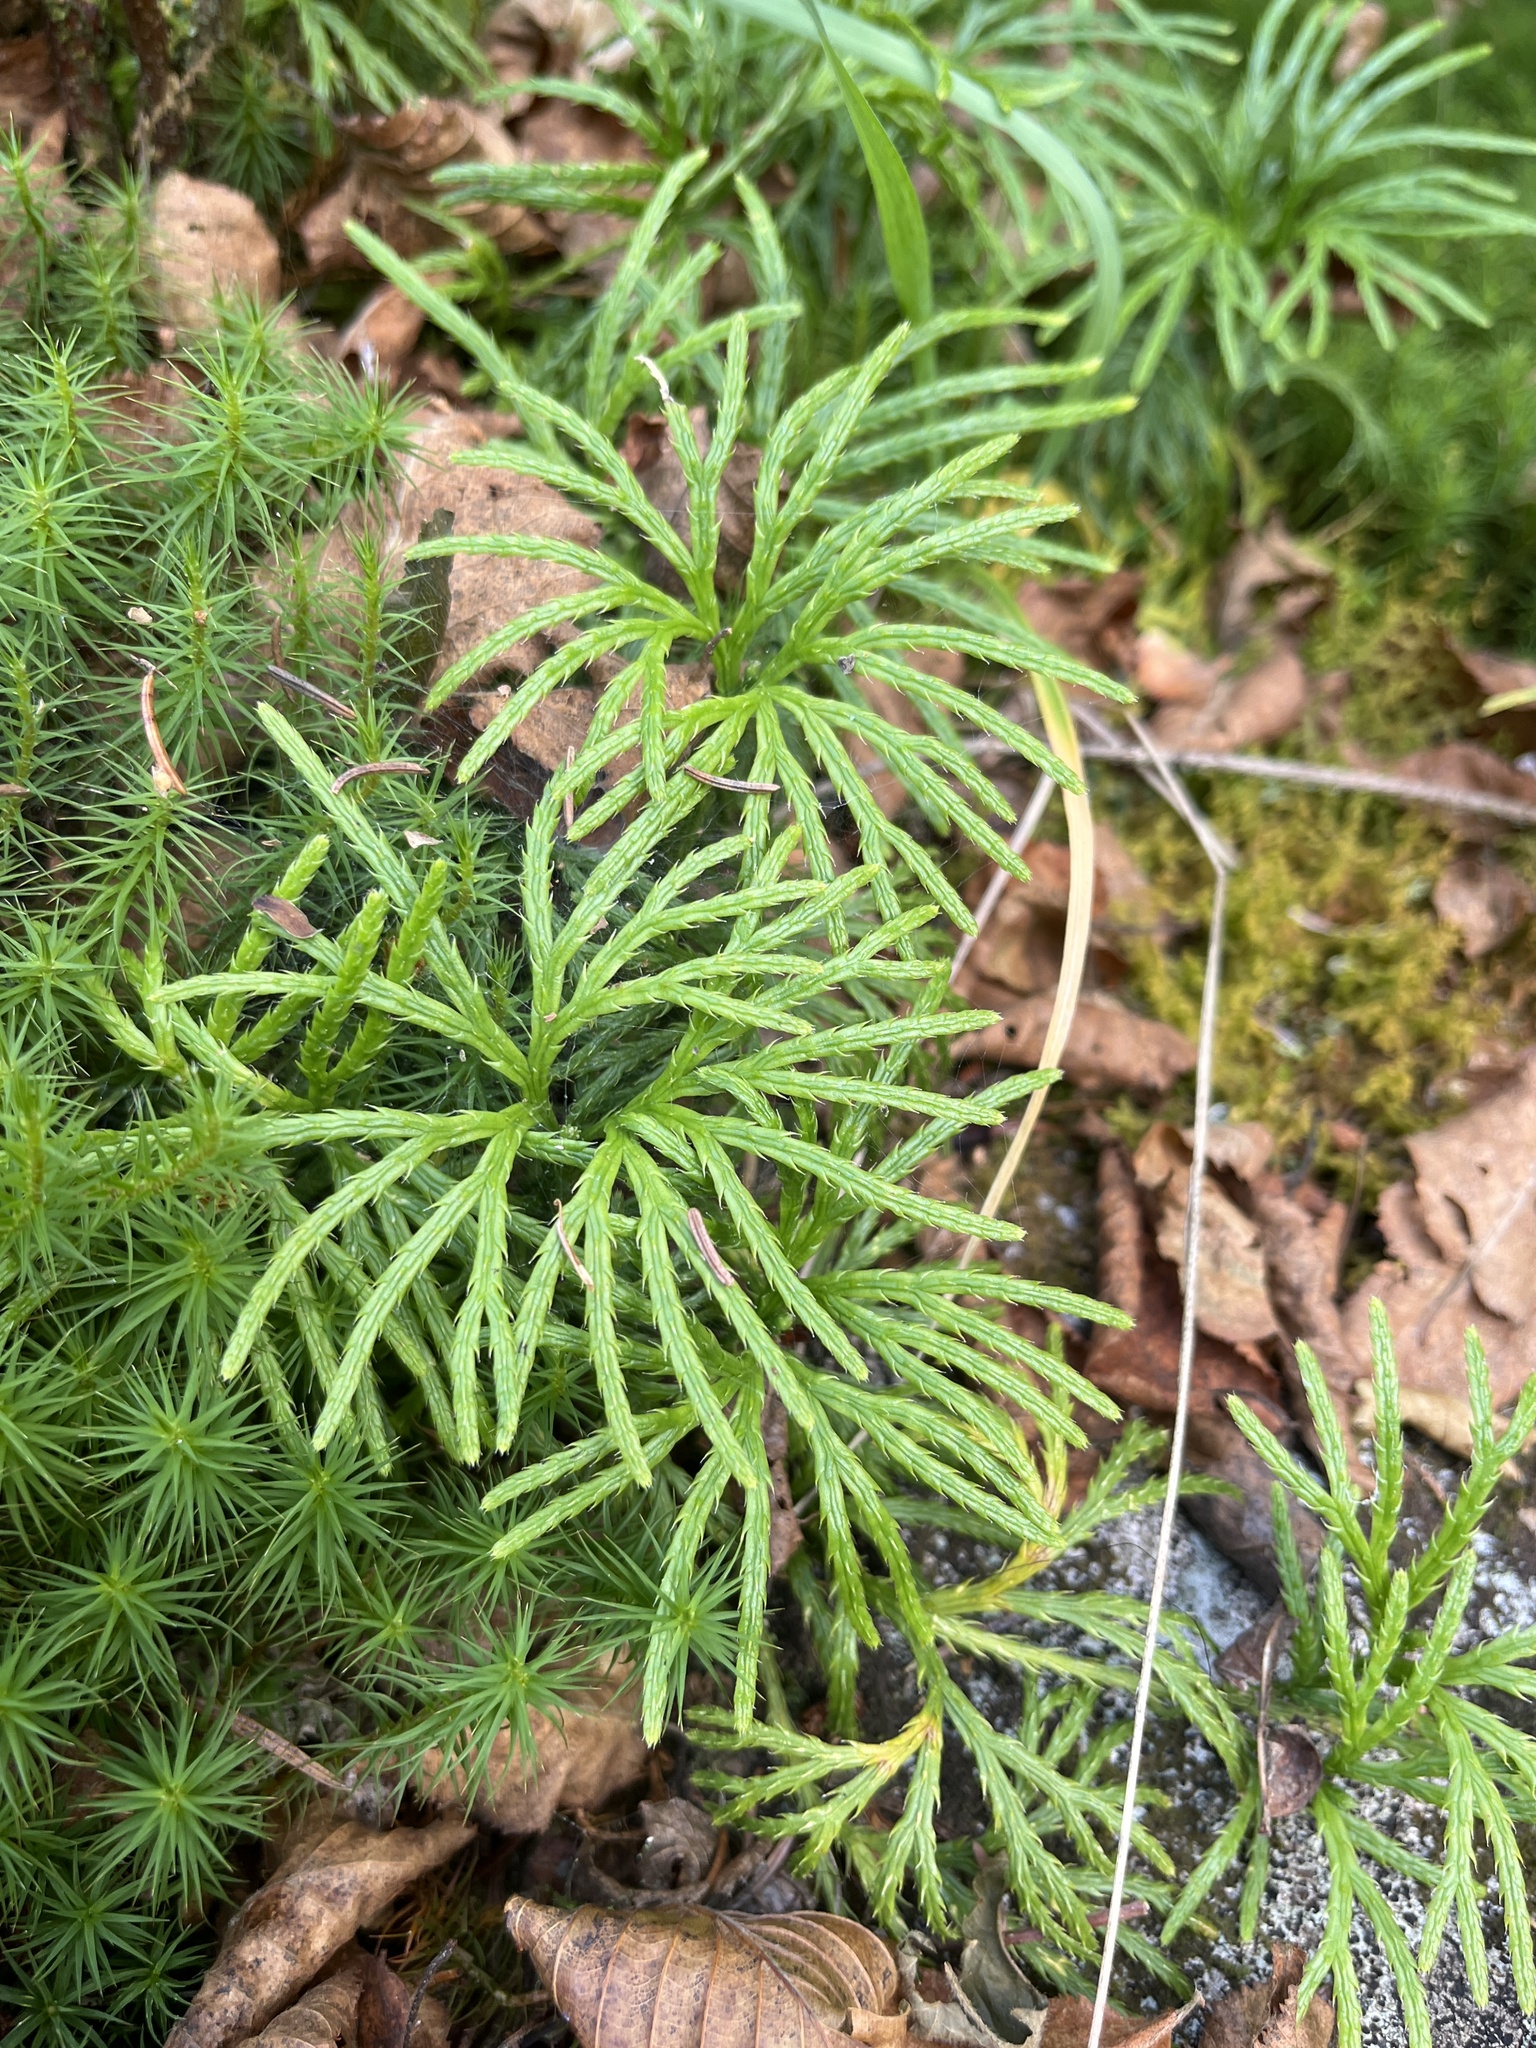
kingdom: Plantae
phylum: Tracheophyta
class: Lycopodiopsida
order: Lycopodiales
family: Lycopodiaceae
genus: Diphasiastrum
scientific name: Diphasiastrum digitatum
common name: Southern running-pine
